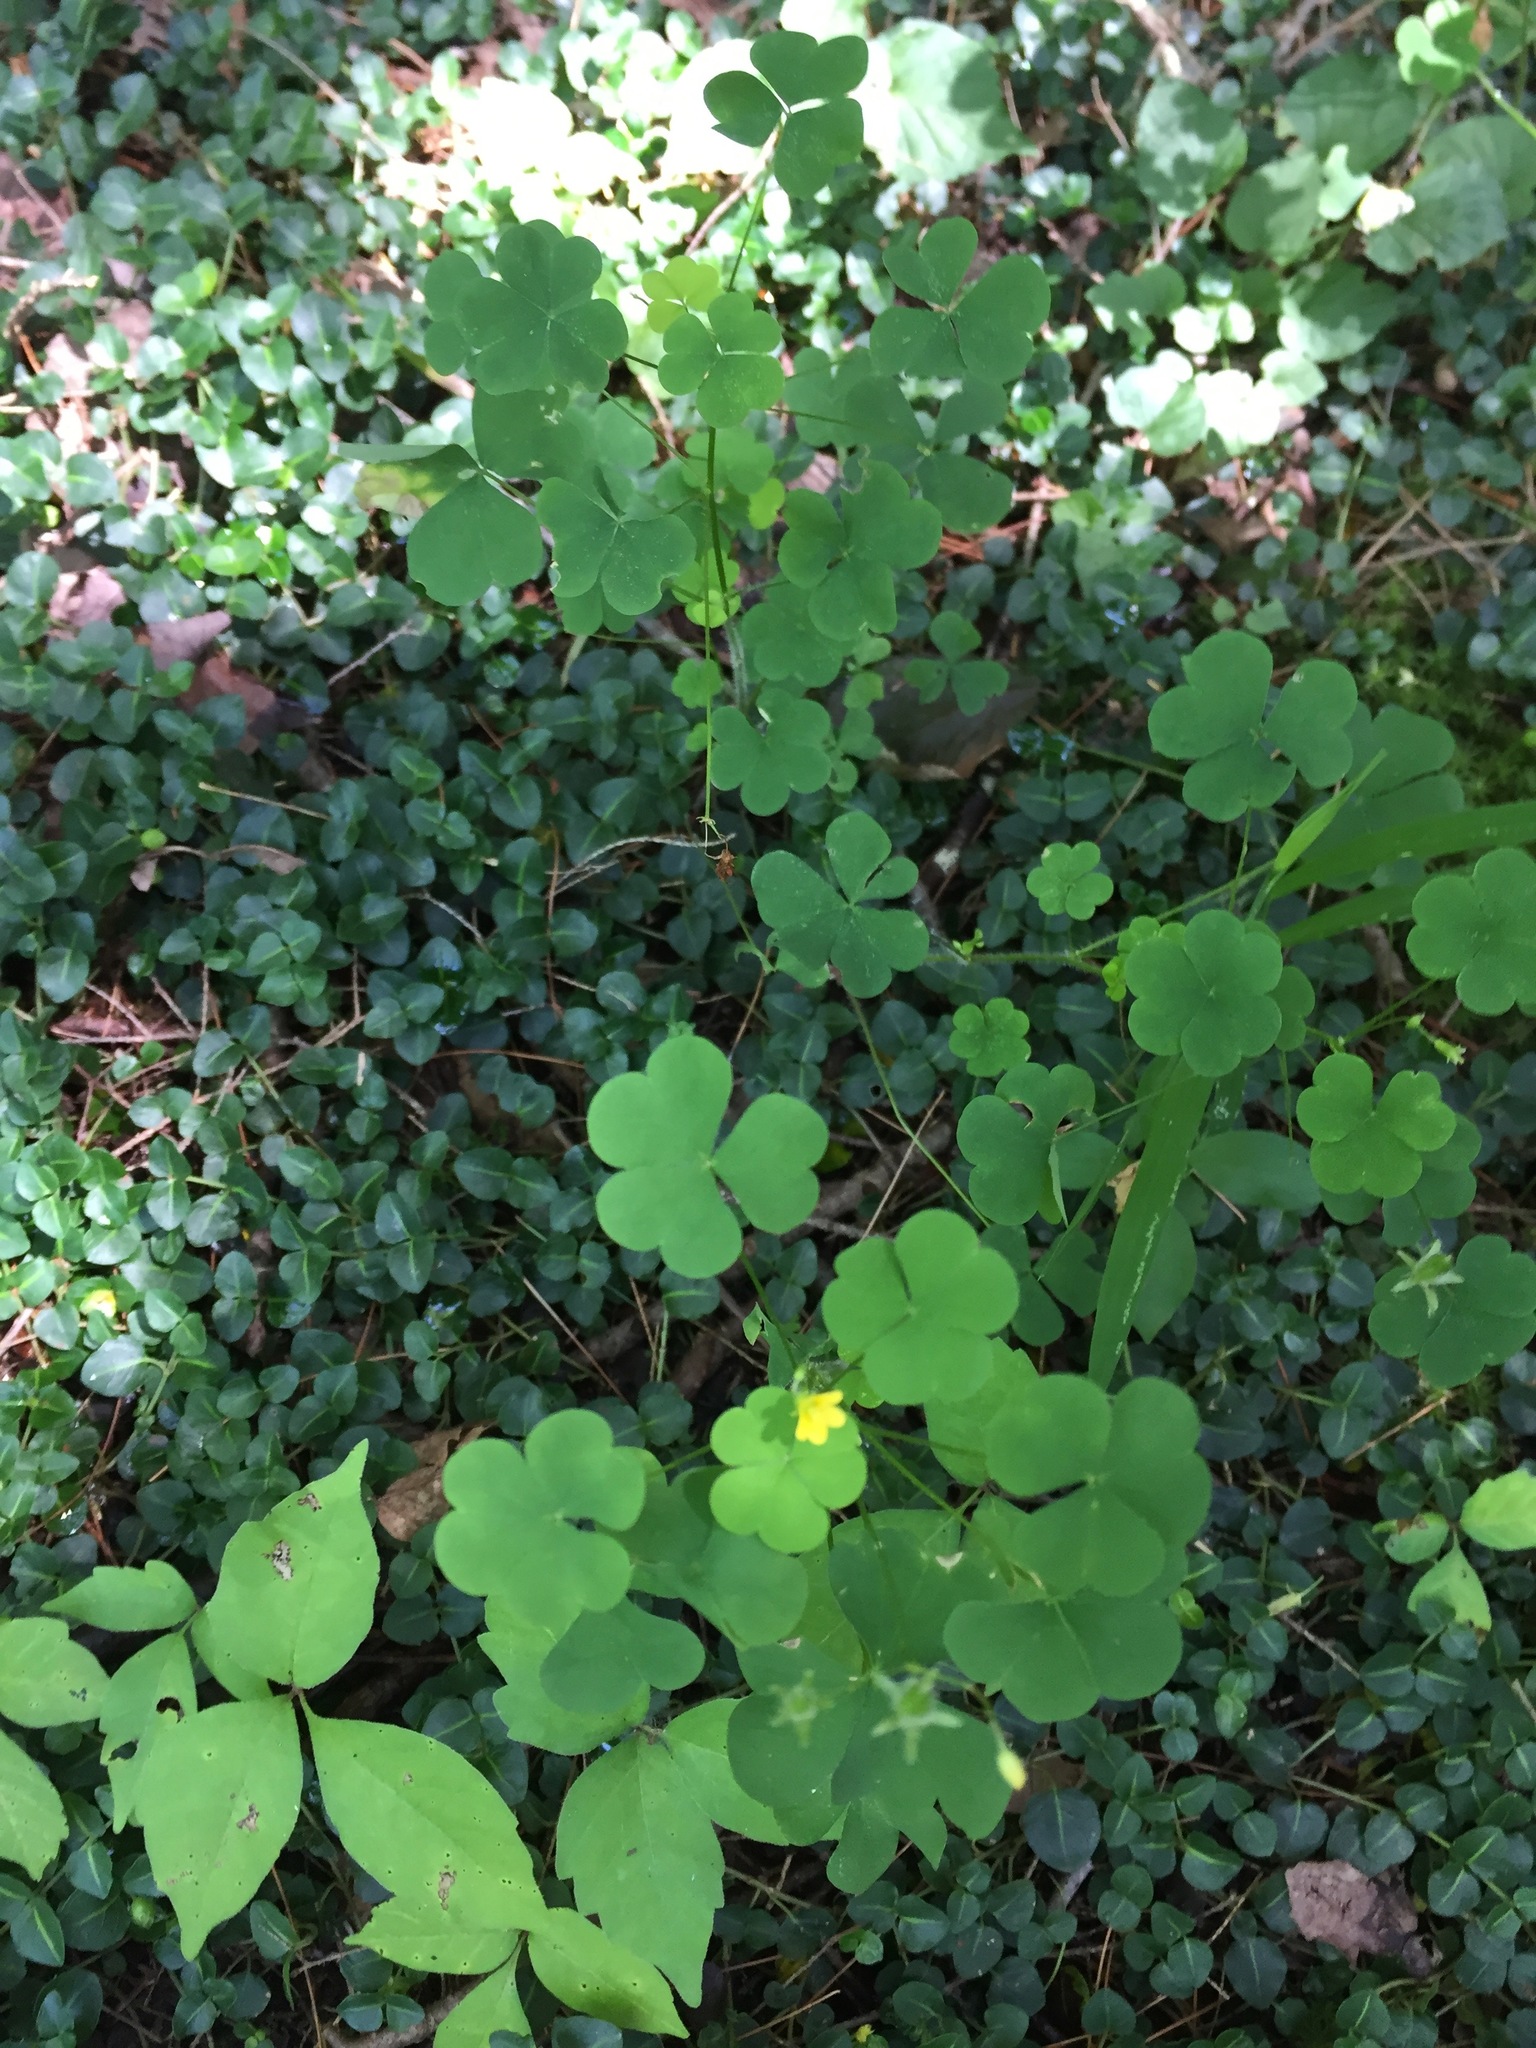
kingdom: Plantae
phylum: Tracheophyta
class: Magnoliopsida
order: Oxalidales
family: Oxalidaceae
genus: Oxalis
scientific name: Oxalis stricta
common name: Upright yellow-sorrel
